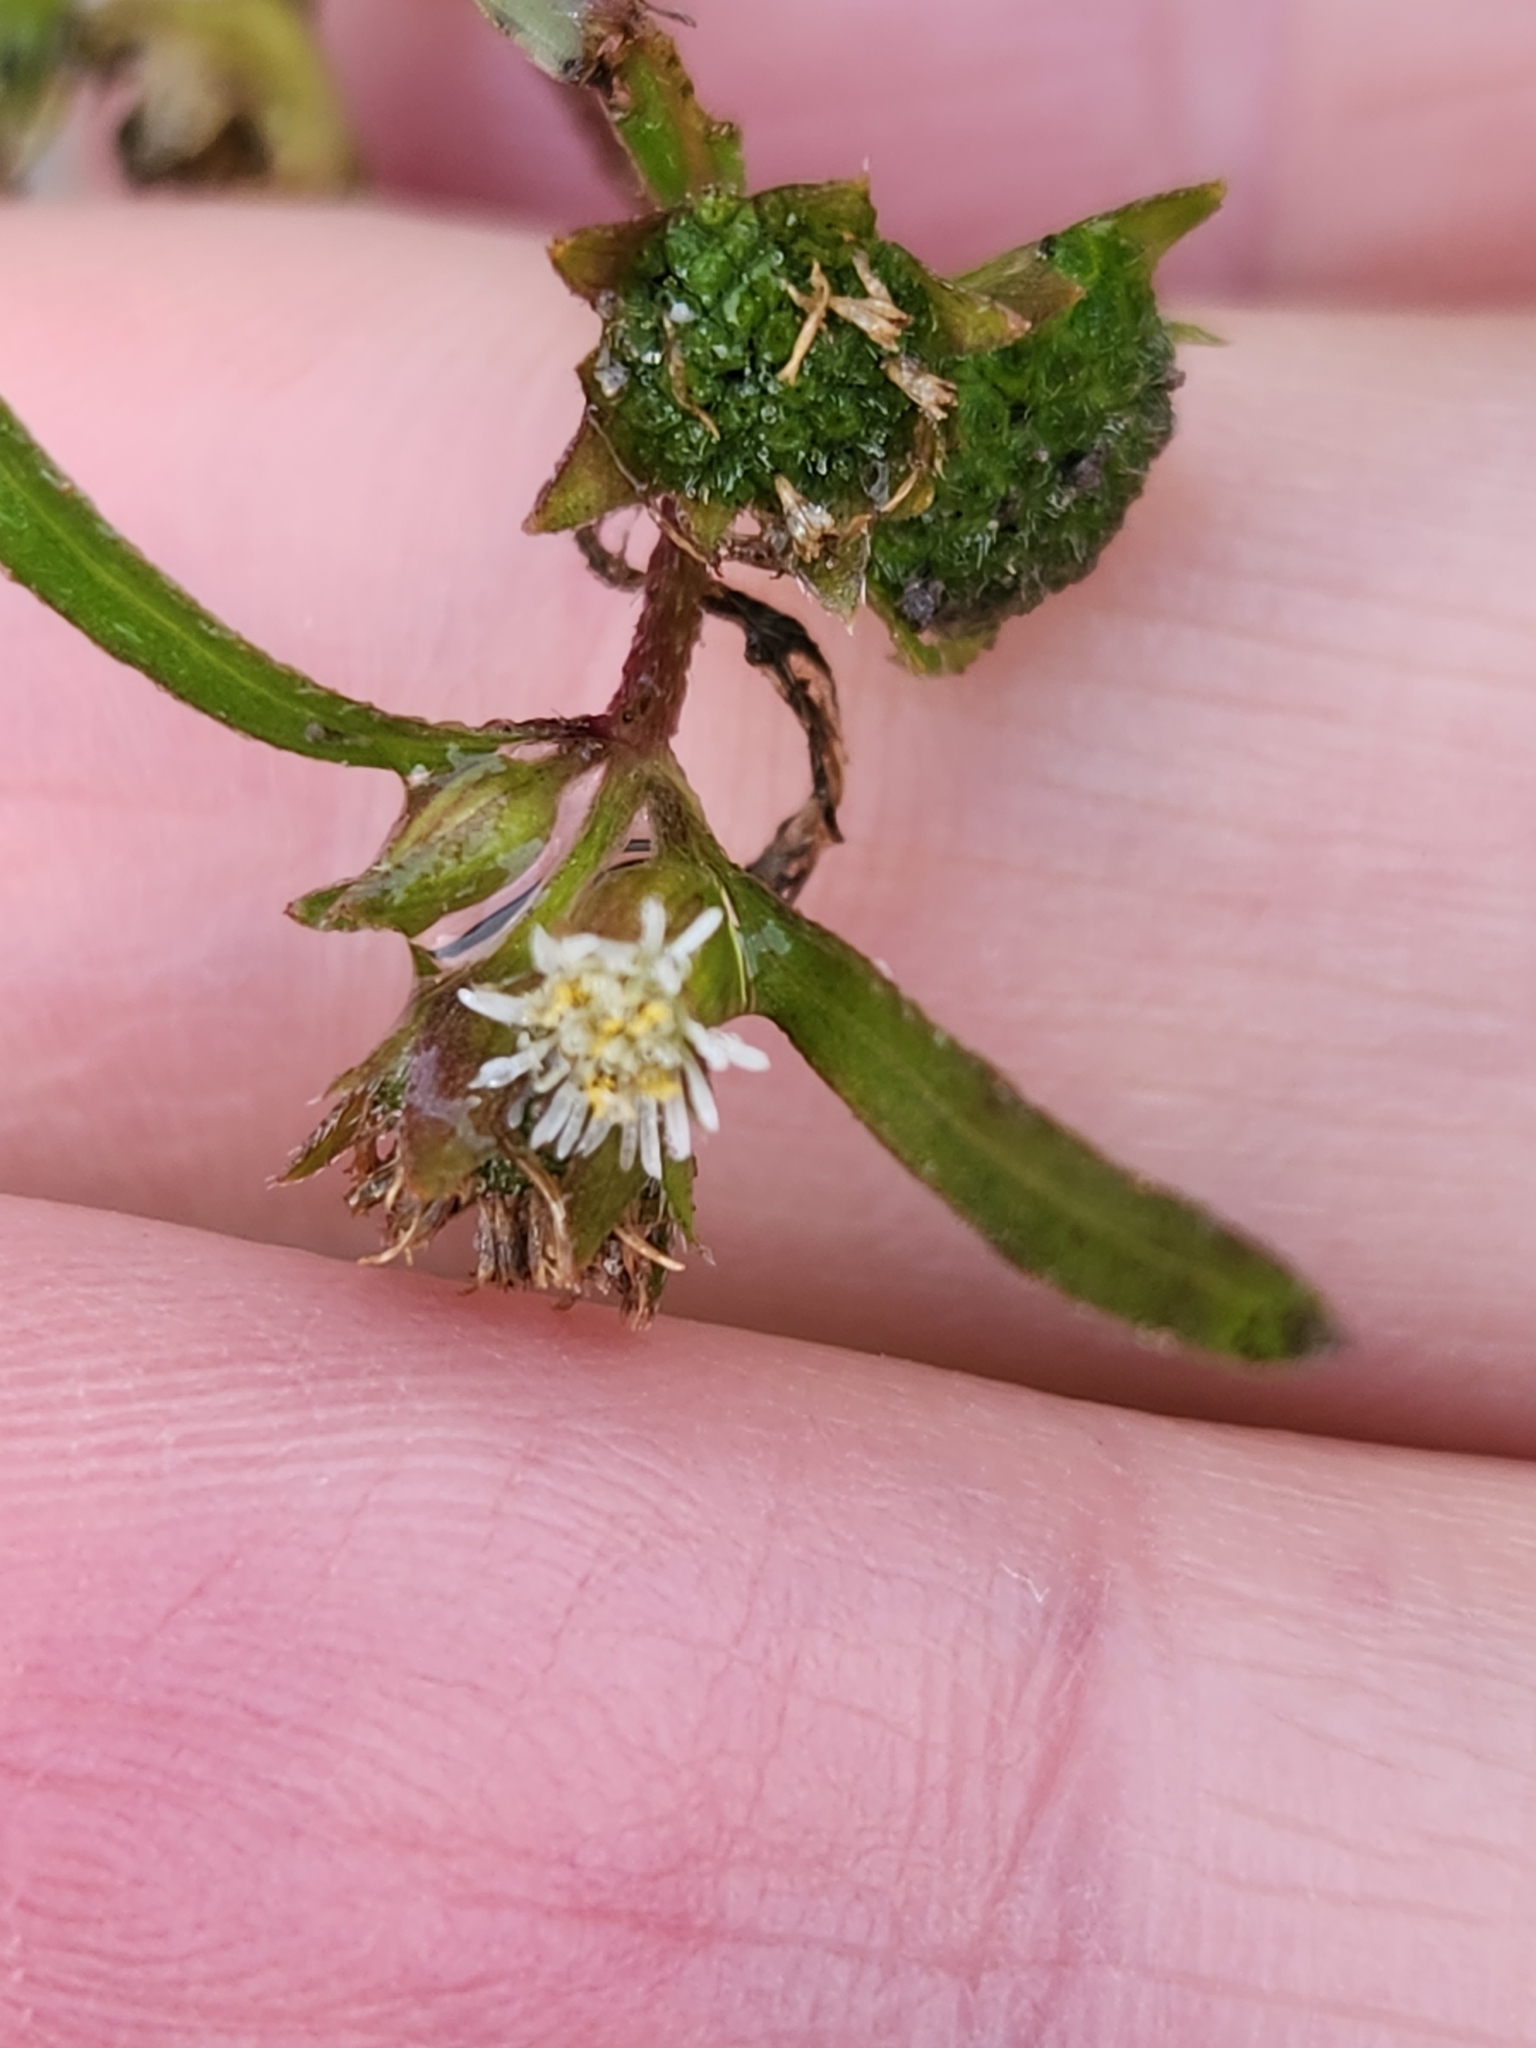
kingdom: Plantae
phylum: Tracheophyta
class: Magnoliopsida
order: Asterales
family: Asteraceae
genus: Eclipta
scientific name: Eclipta prostrata
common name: False daisy
